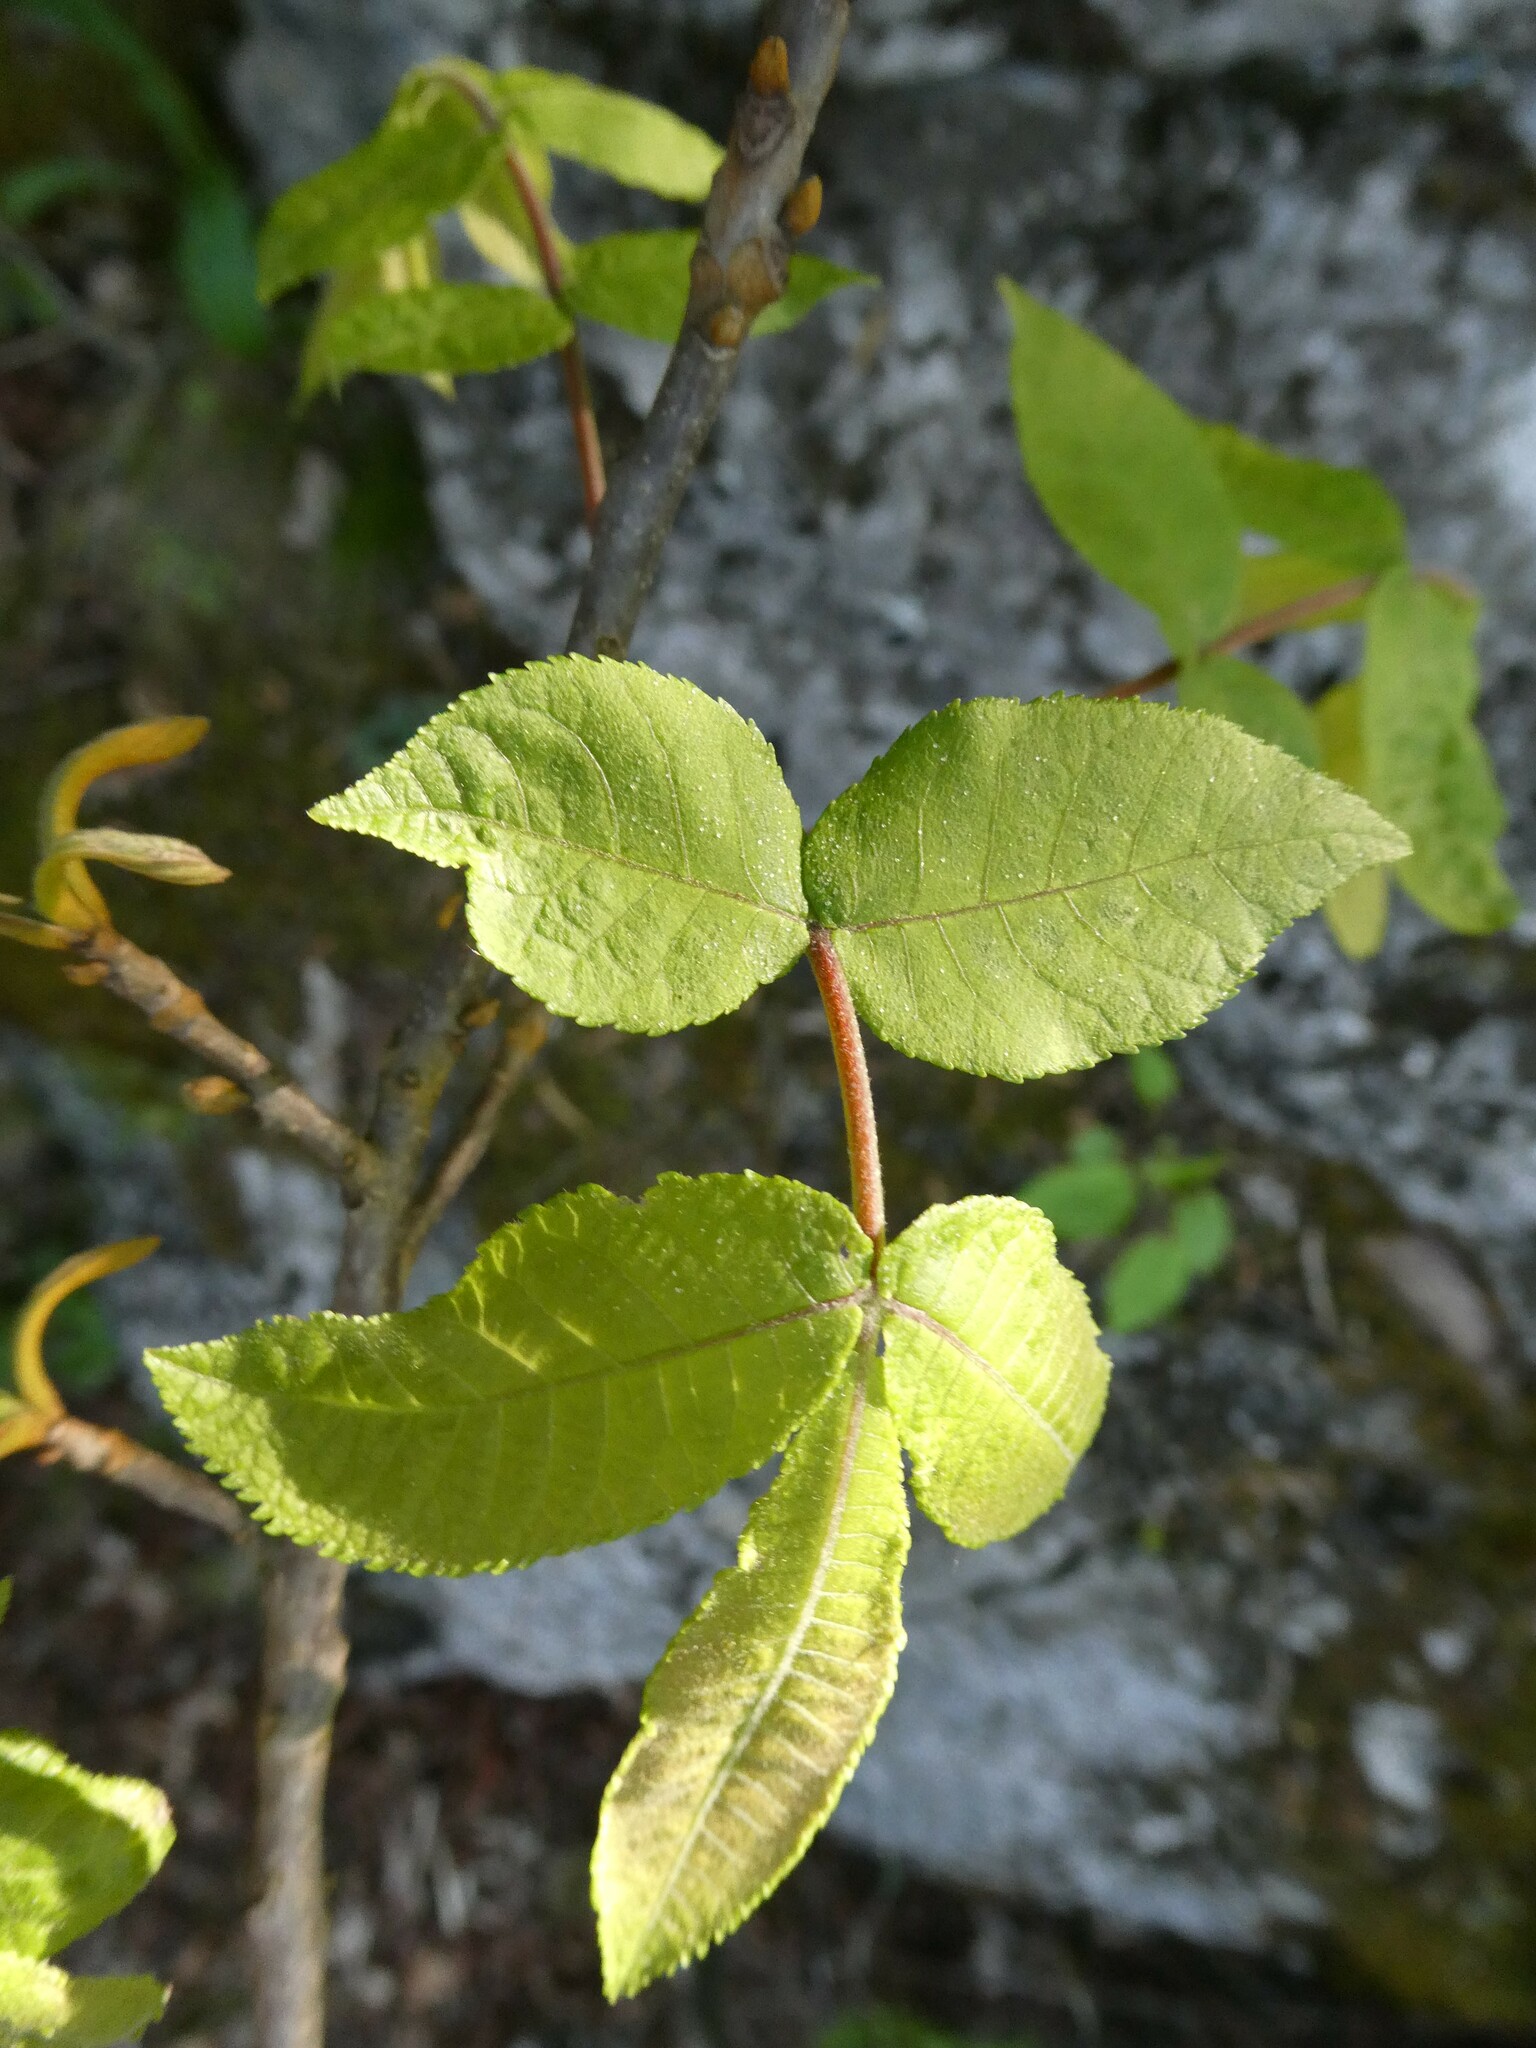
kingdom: Plantae
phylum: Tracheophyta
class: Magnoliopsida
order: Fagales
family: Juglandaceae
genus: Carya
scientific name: Carya cordiformis
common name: Bitternut hickory
